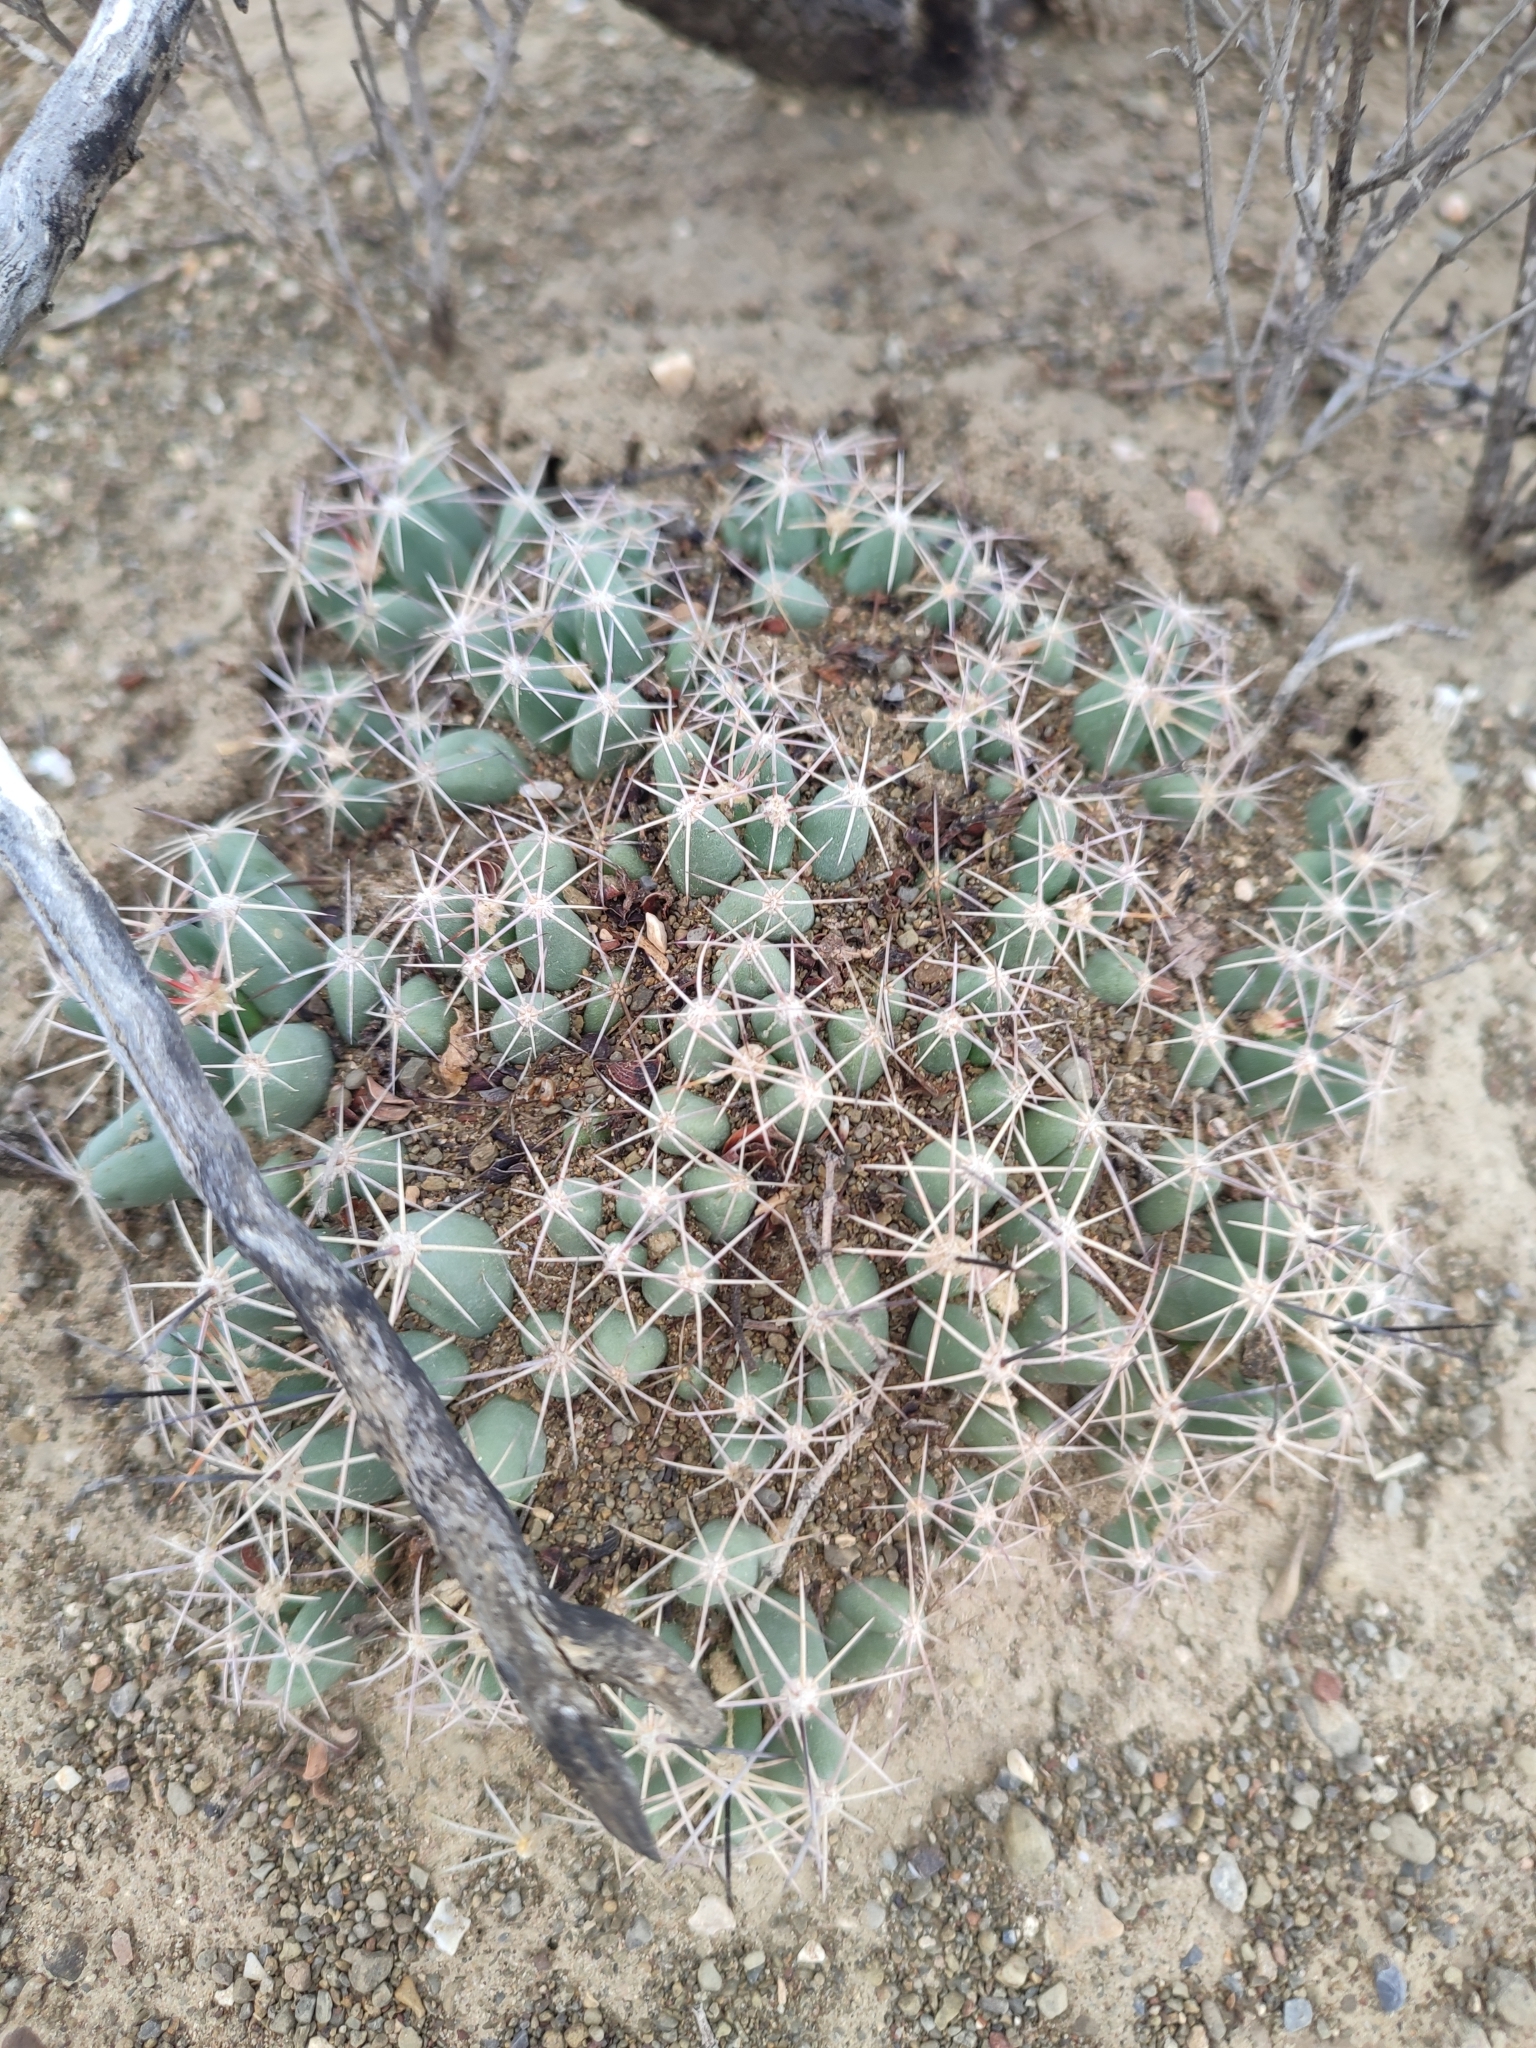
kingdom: Plantae
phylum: Tracheophyta
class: Magnoliopsida
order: Caryophyllales
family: Cactaceae
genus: Coryphantha
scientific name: Coryphantha macromeris
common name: Nipple beehive cactus
